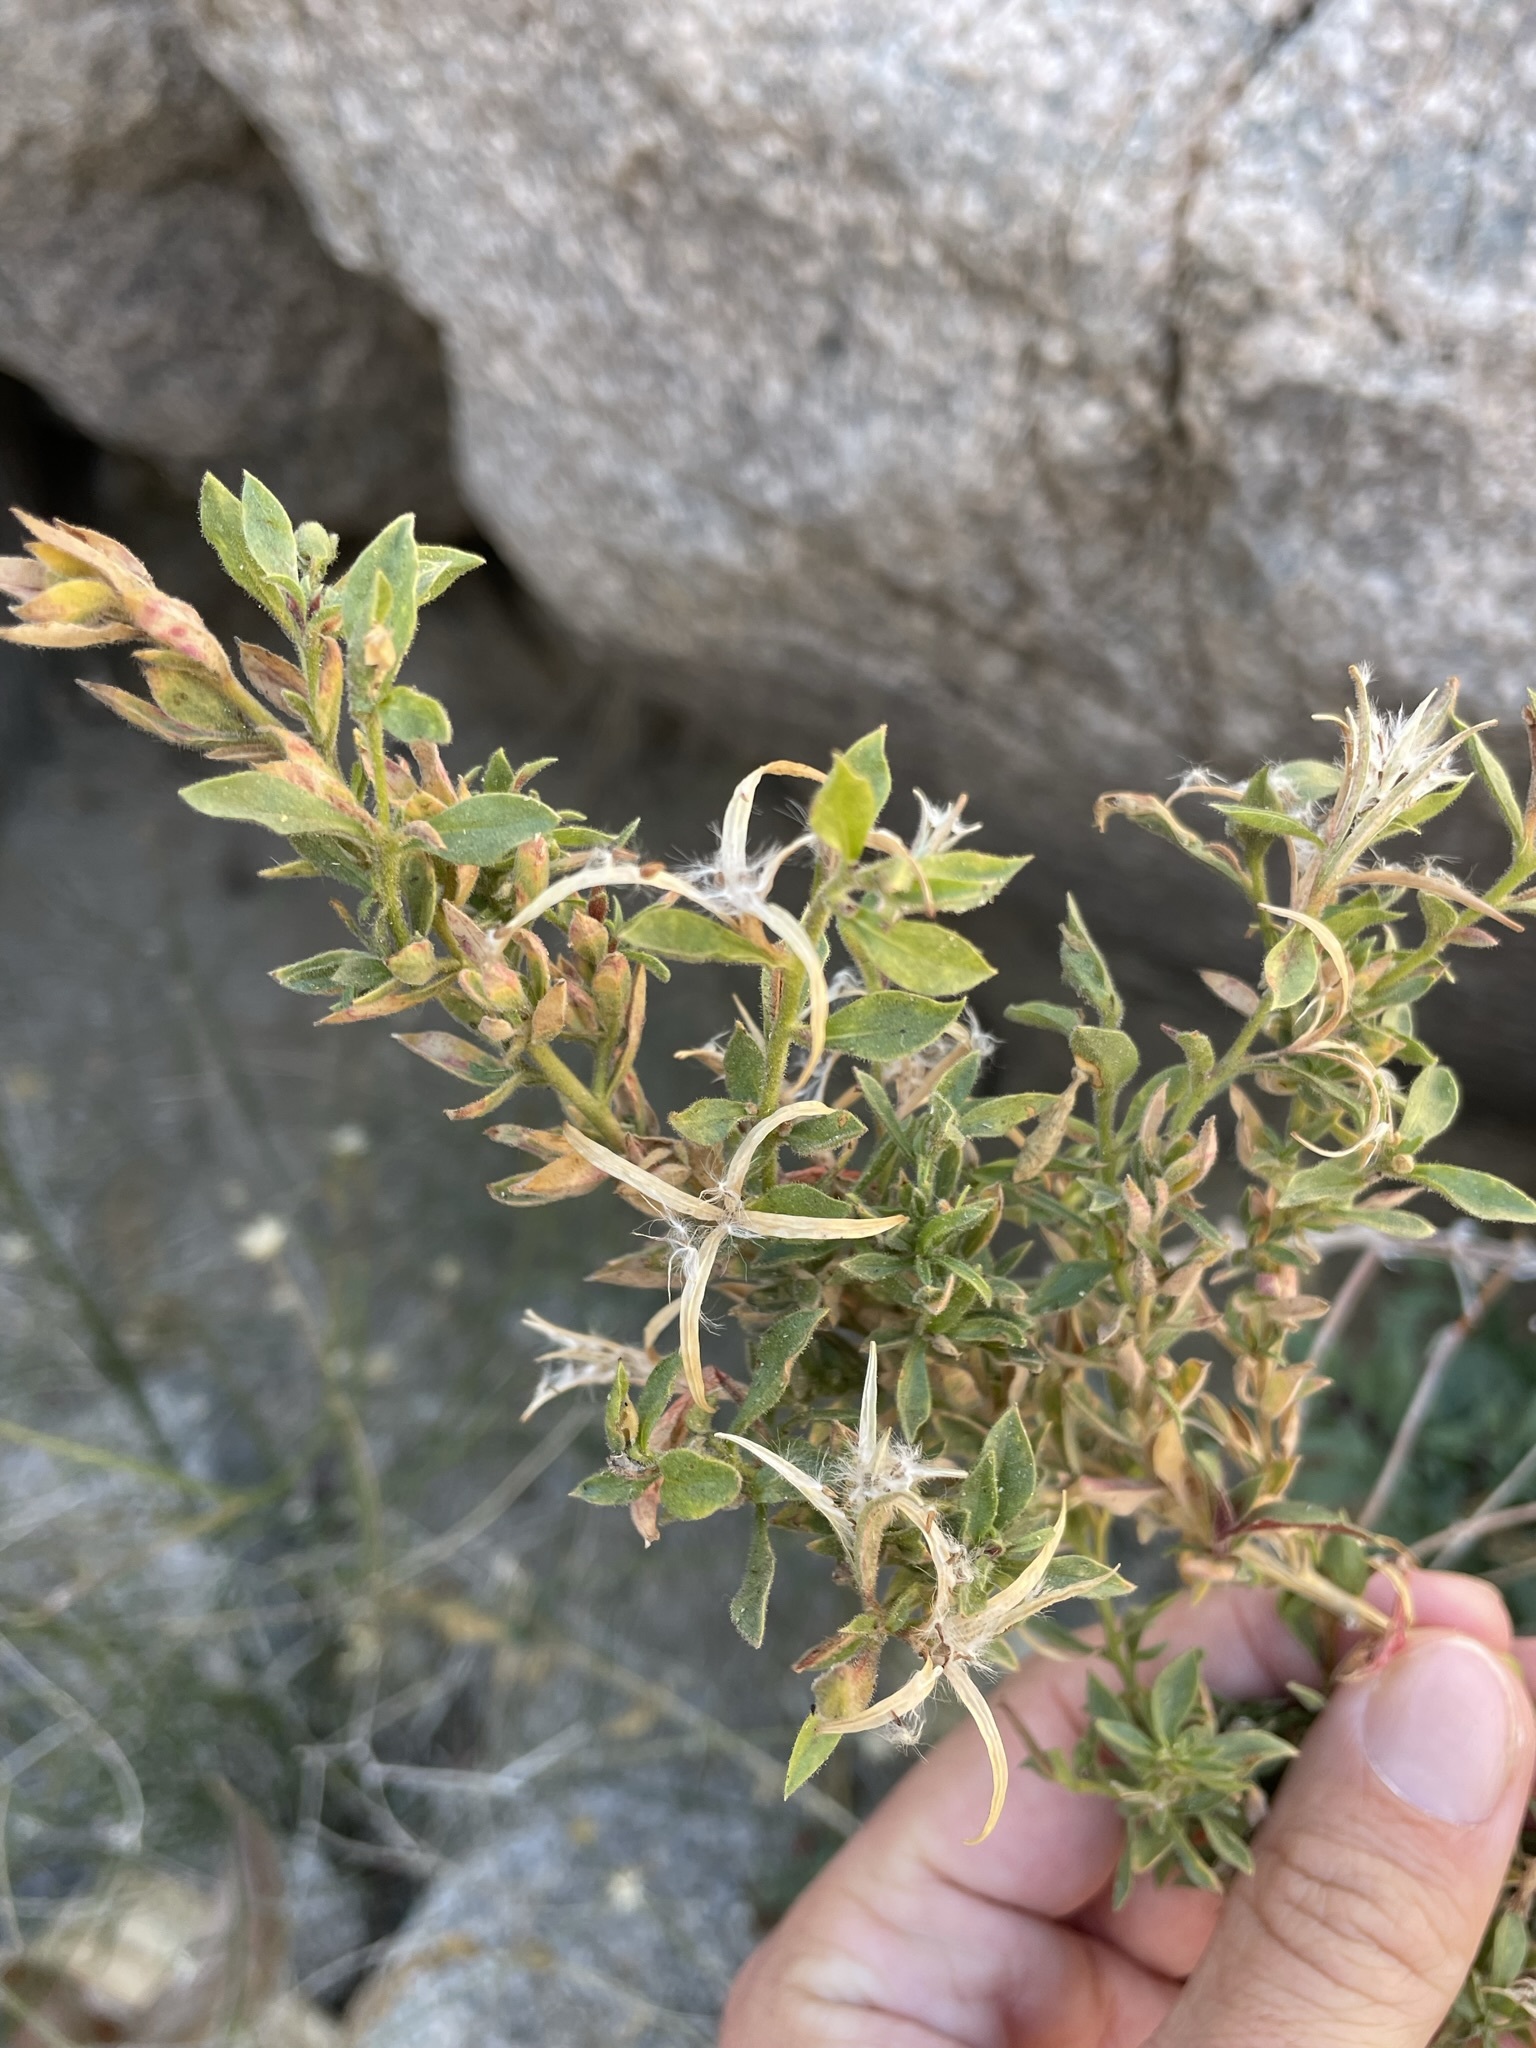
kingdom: Plantae
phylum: Tracheophyta
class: Magnoliopsida
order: Myrtales
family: Onagraceae
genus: Epilobium
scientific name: Epilobium canum
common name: California-fuchsia
